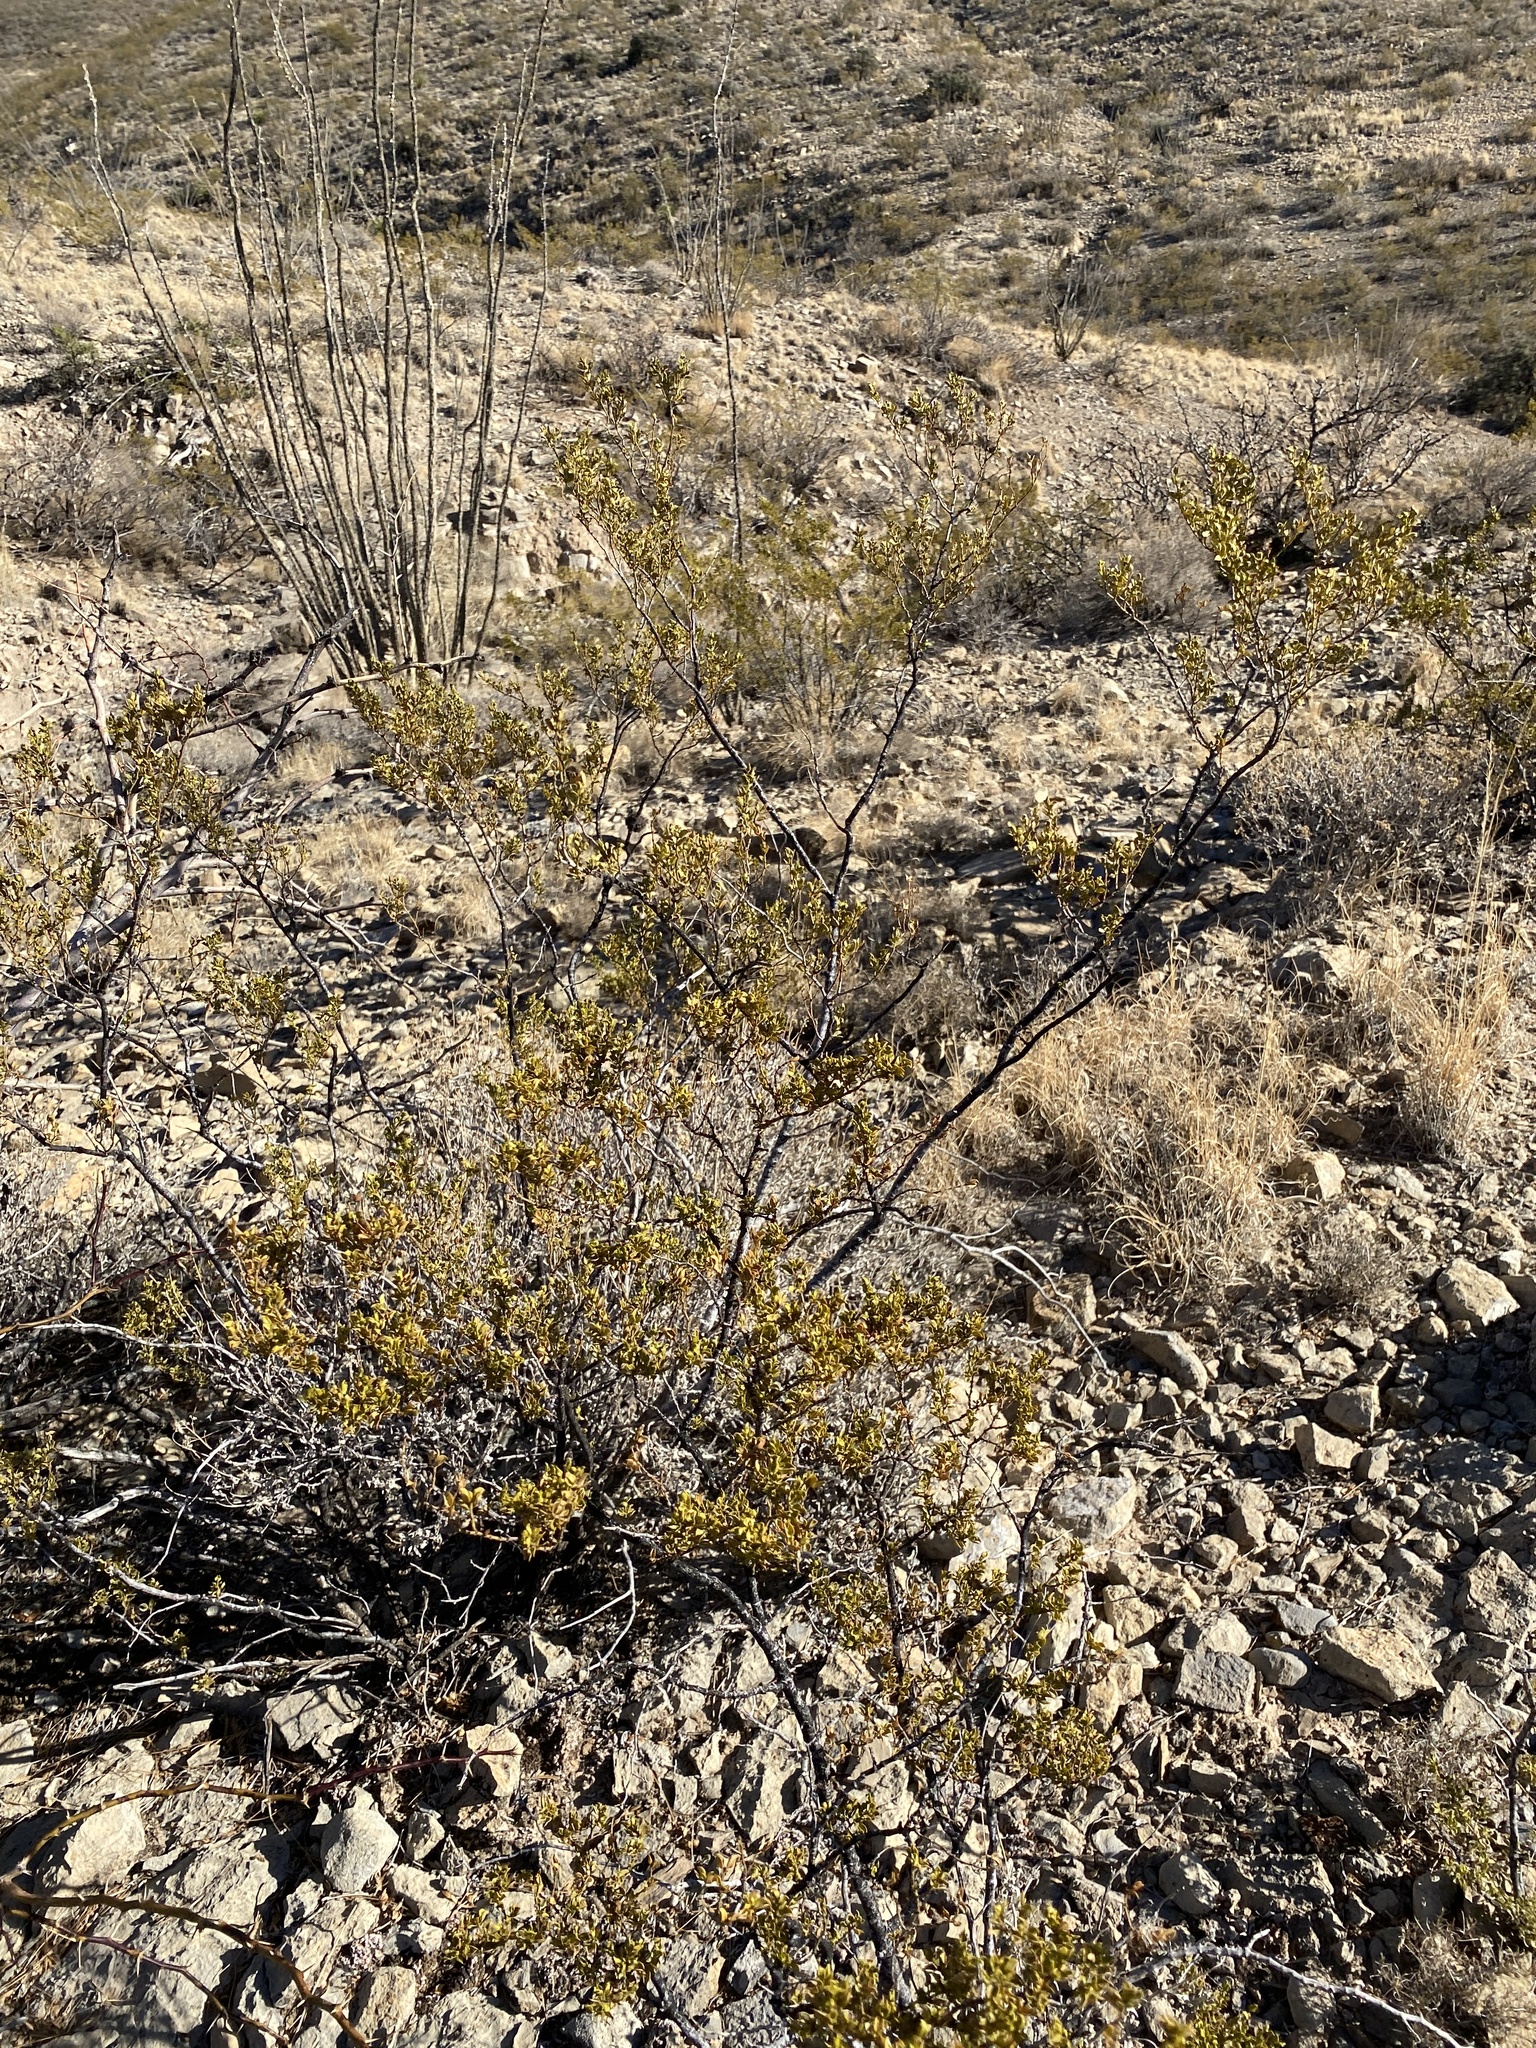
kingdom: Plantae
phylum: Tracheophyta
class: Magnoliopsida
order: Zygophyllales
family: Zygophyllaceae
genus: Larrea
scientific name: Larrea tridentata
